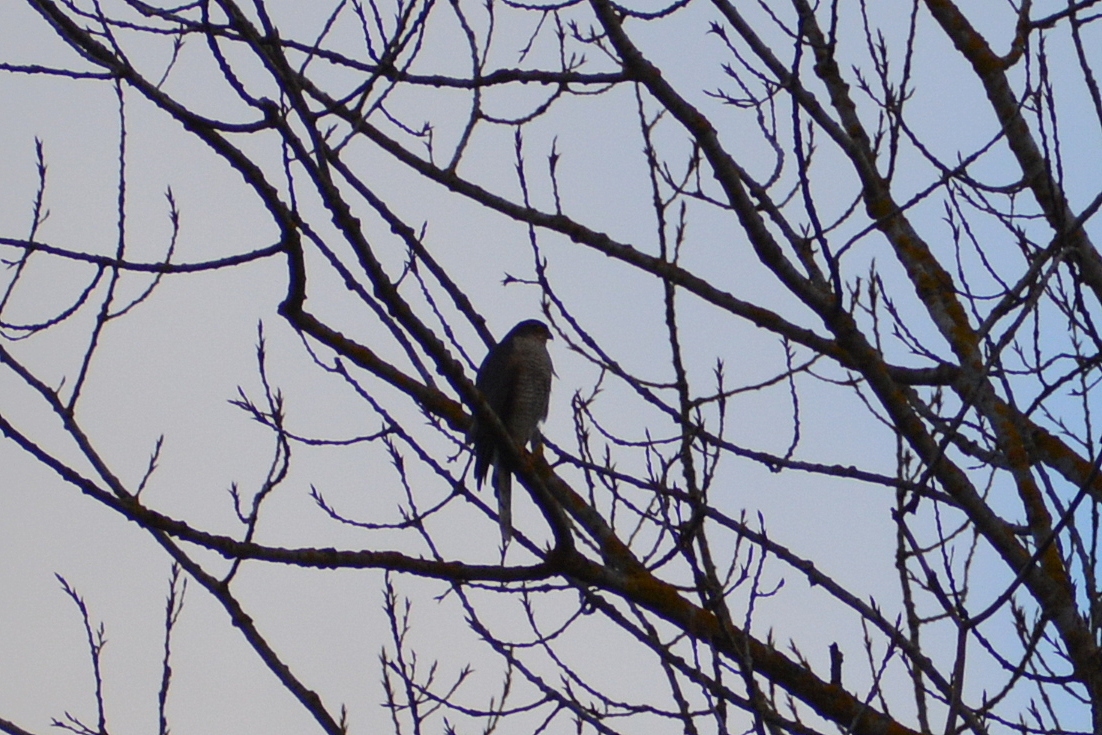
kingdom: Animalia
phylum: Chordata
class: Aves
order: Accipitriformes
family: Accipitridae
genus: Accipiter
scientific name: Accipiter nisus
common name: Eurasian sparrowhawk
